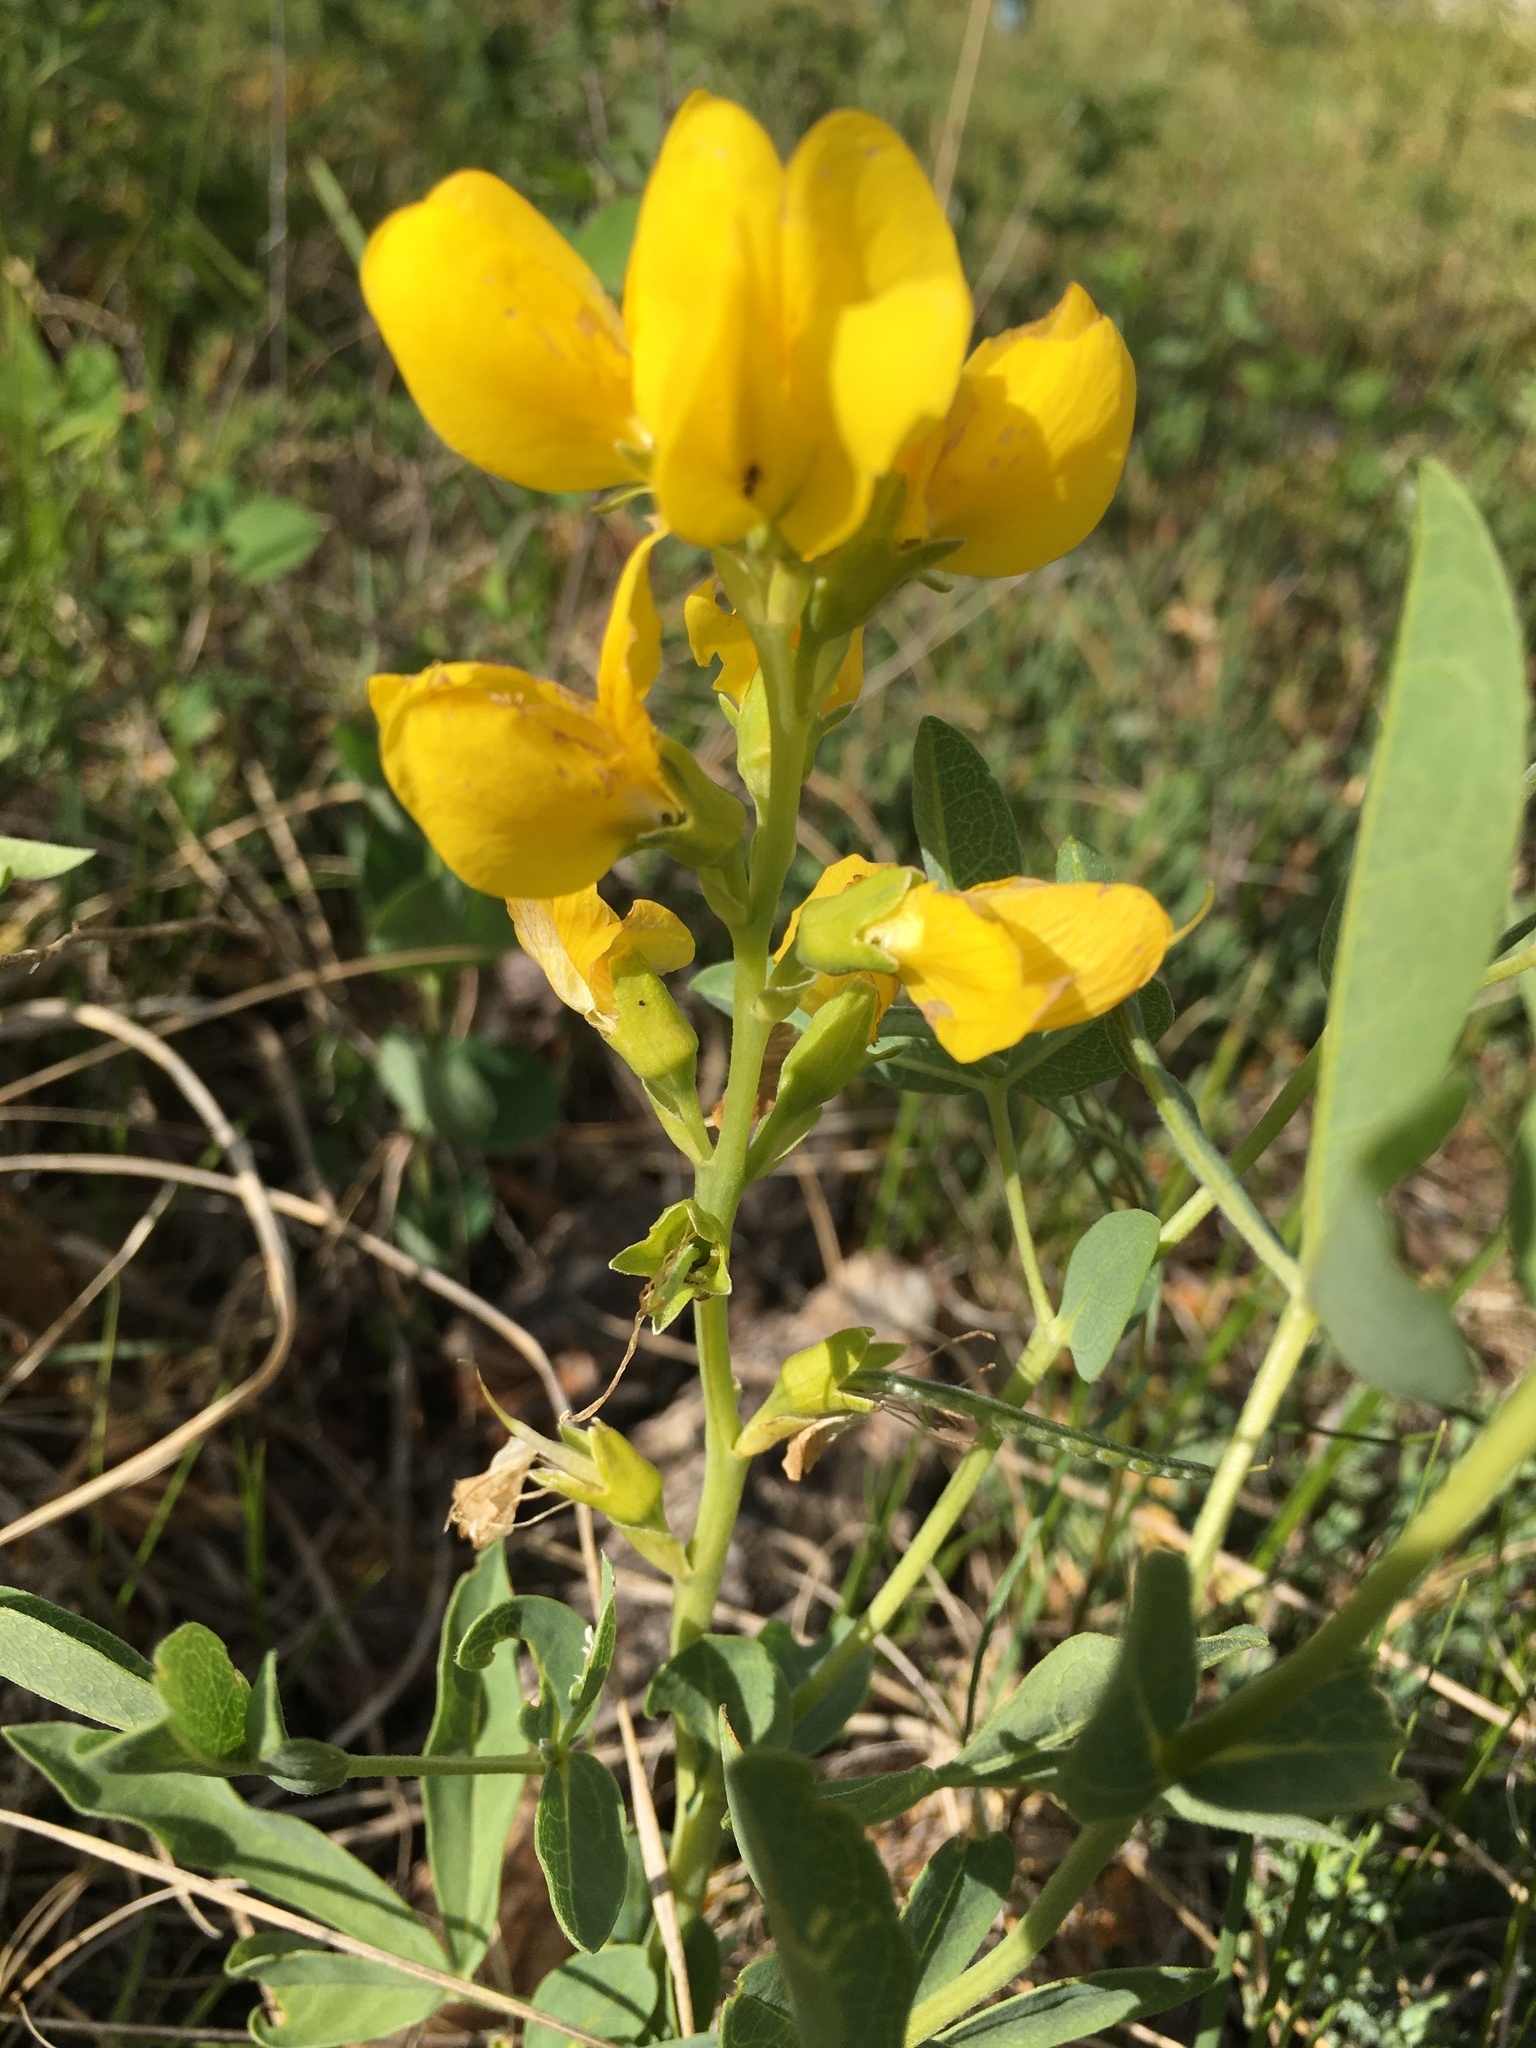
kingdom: Plantae
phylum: Tracheophyta
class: Magnoliopsida
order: Fabales
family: Fabaceae
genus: Thermopsis
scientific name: Thermopsis rhombifolia
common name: Circle-pod-pea
